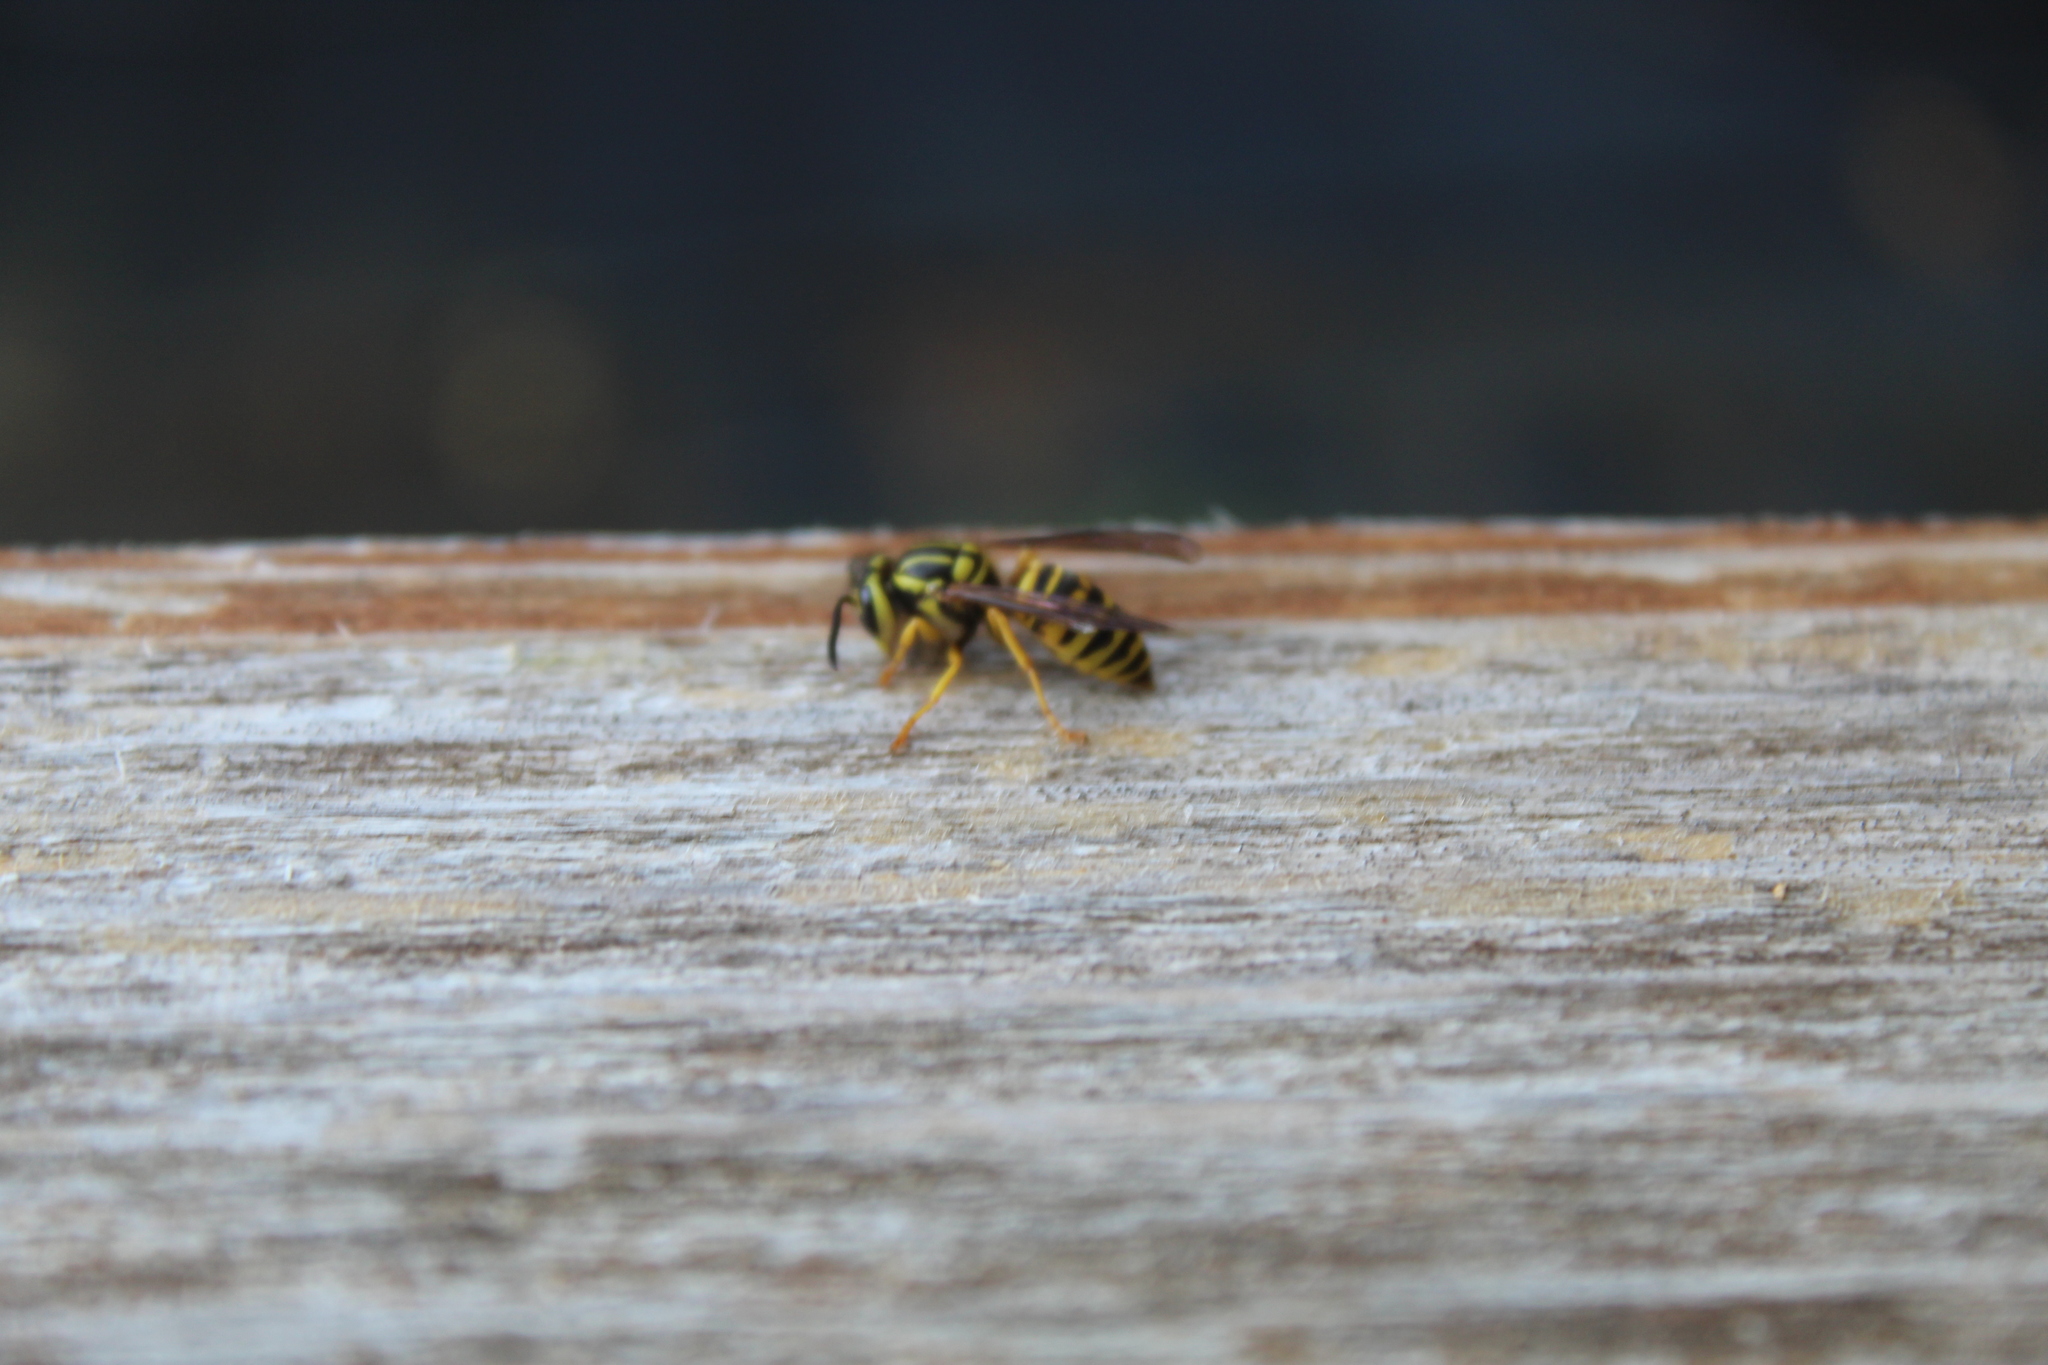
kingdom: Animalia
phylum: Arthropoda
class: Insecta
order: Hymenoptera
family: Vespidae
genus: Vespula
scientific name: Vespula squamosa
